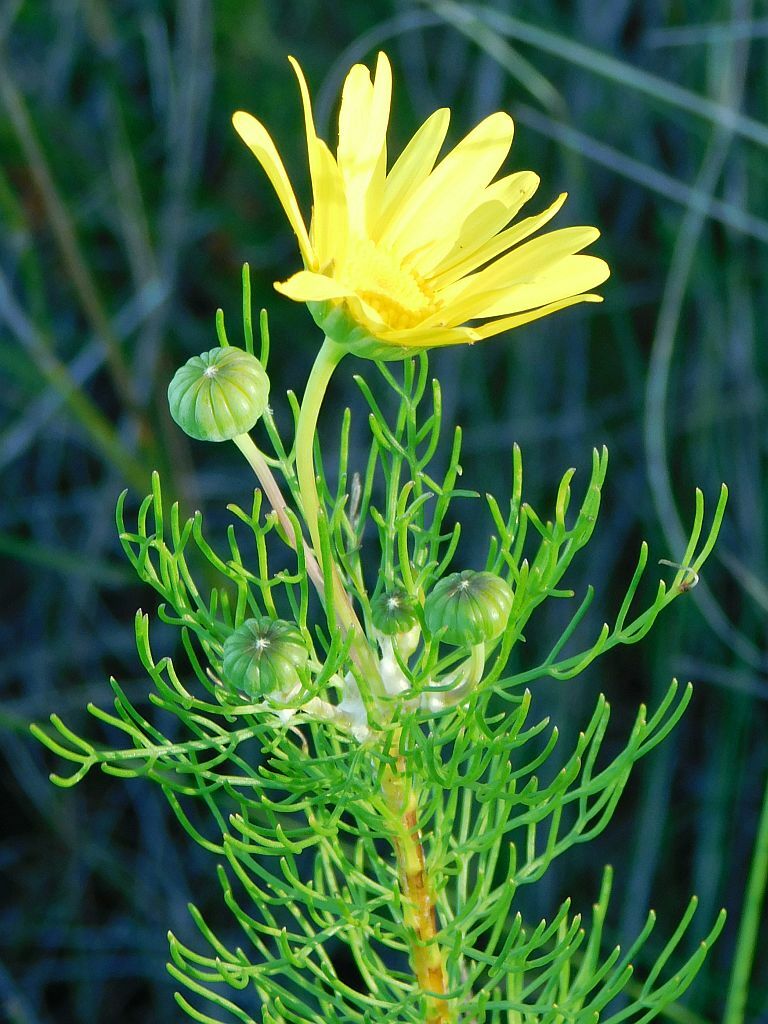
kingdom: Plantae
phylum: Tracheophyta
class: Magnoliopsida
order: Asterales
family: Asteraceae
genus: Euryops
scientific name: Euryops abrotanifolius
